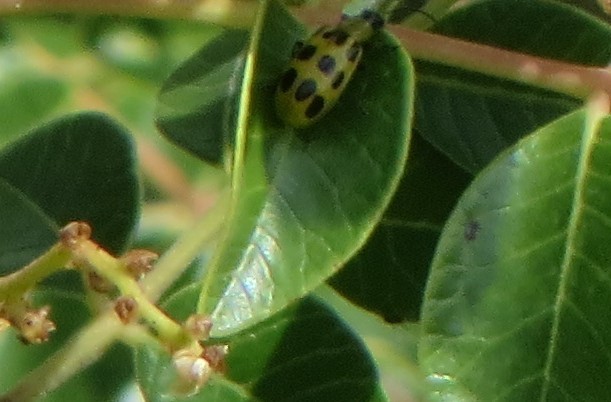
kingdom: Animalia
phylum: Arthropoda
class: Insecta
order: Coleoptera
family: Chrysomelidae
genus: Diabrotica
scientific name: Diabrotica undecimpunctata
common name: Spotted cucumber beetle
